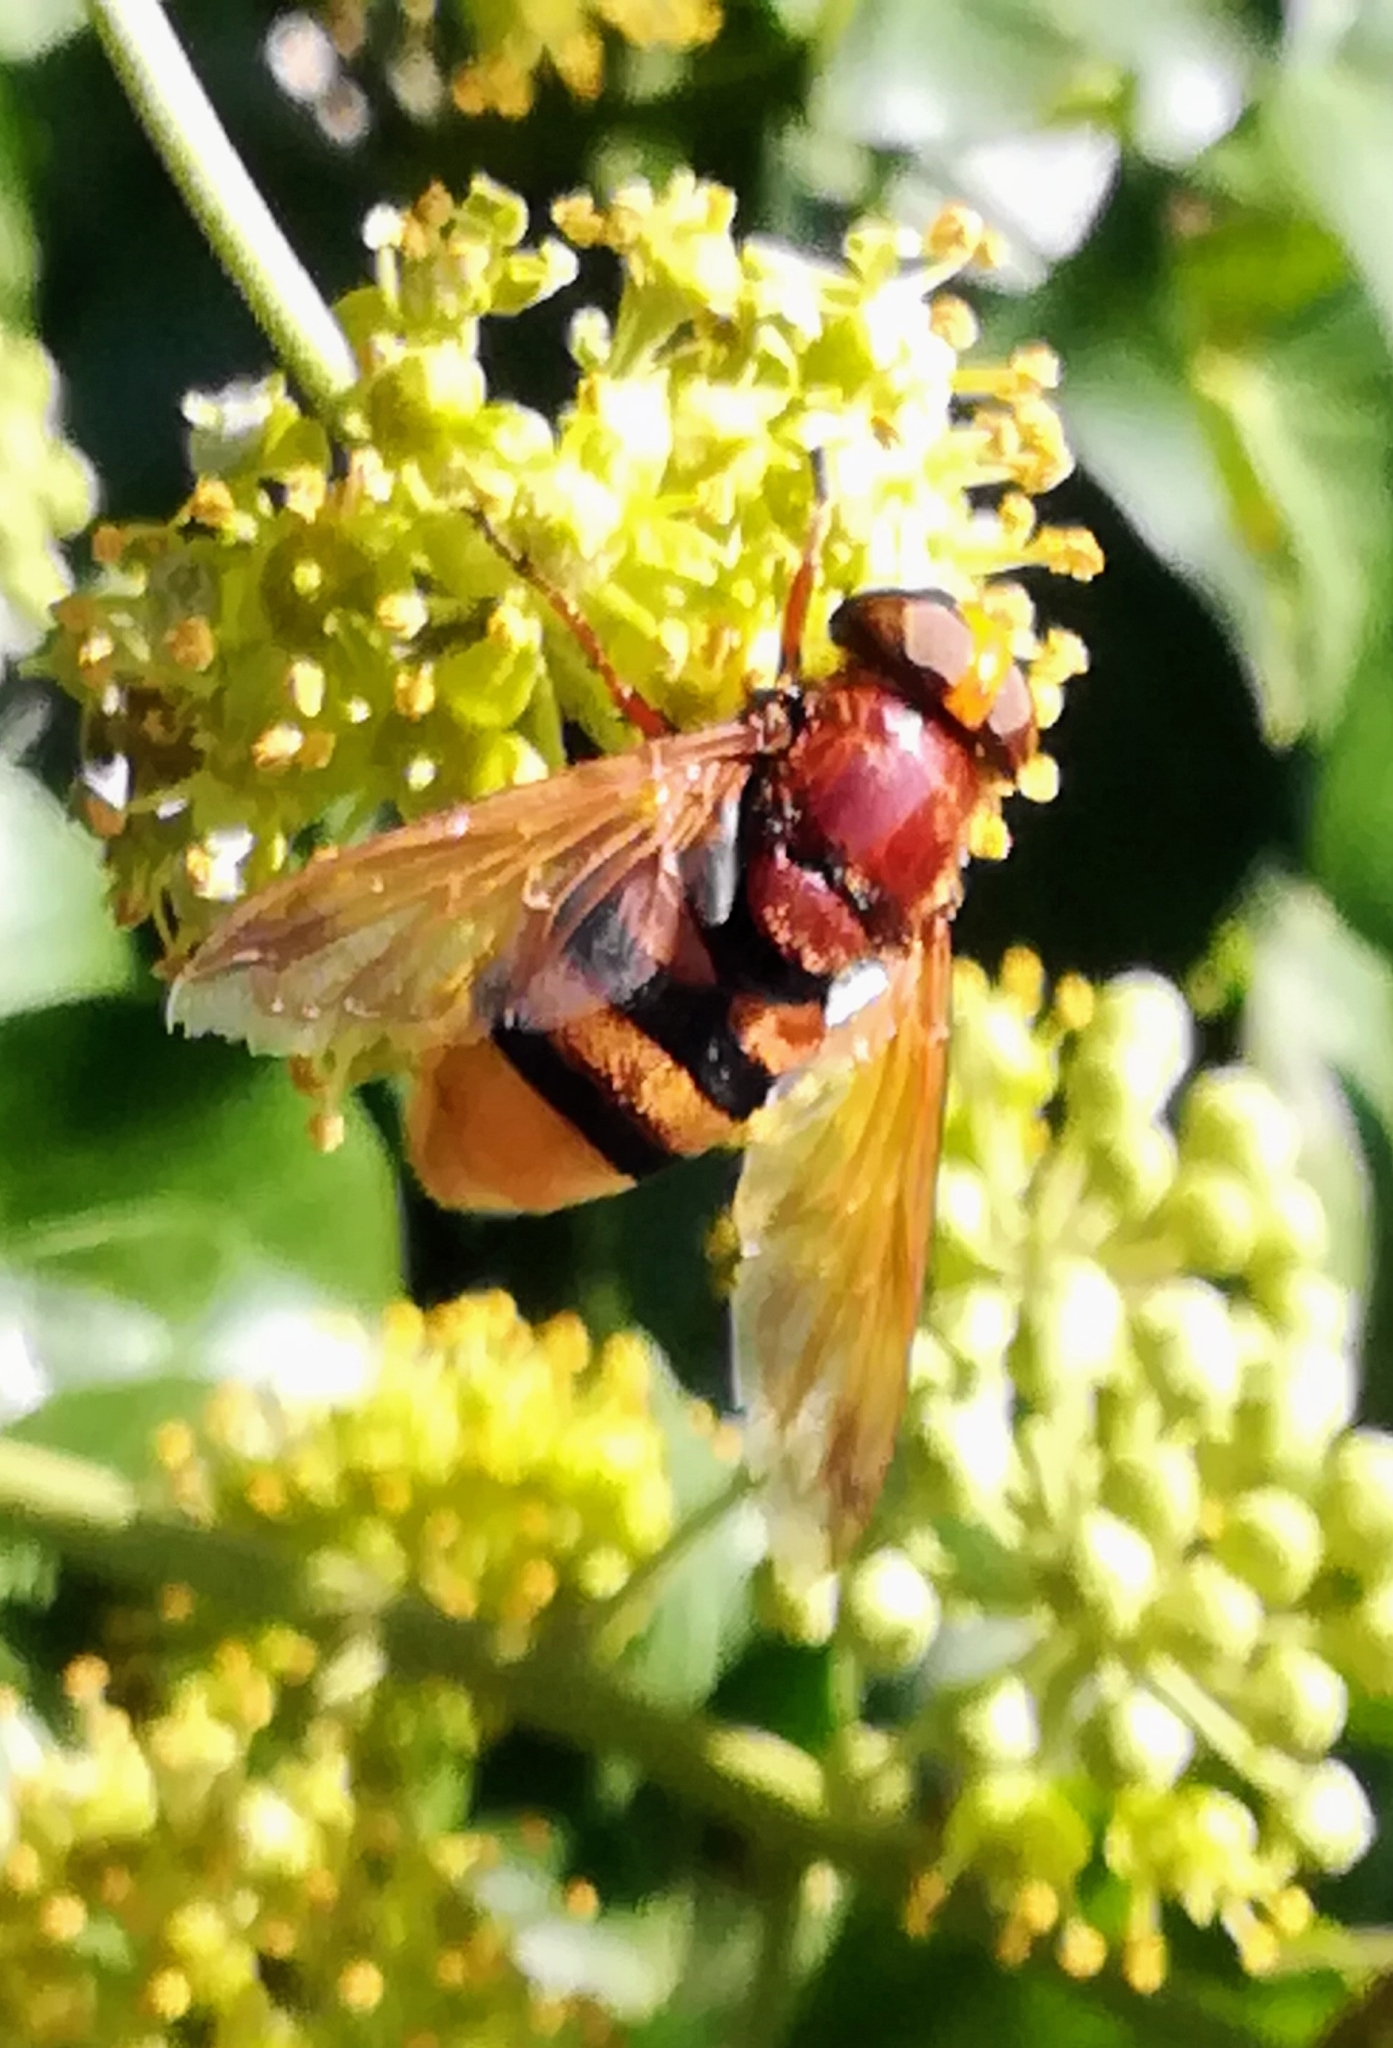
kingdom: Animalia
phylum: Arthropoda
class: Insecta
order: Diptera
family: Syrphidae
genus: Volucella
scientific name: Volucella zonaria
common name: Hornet hoverfly
